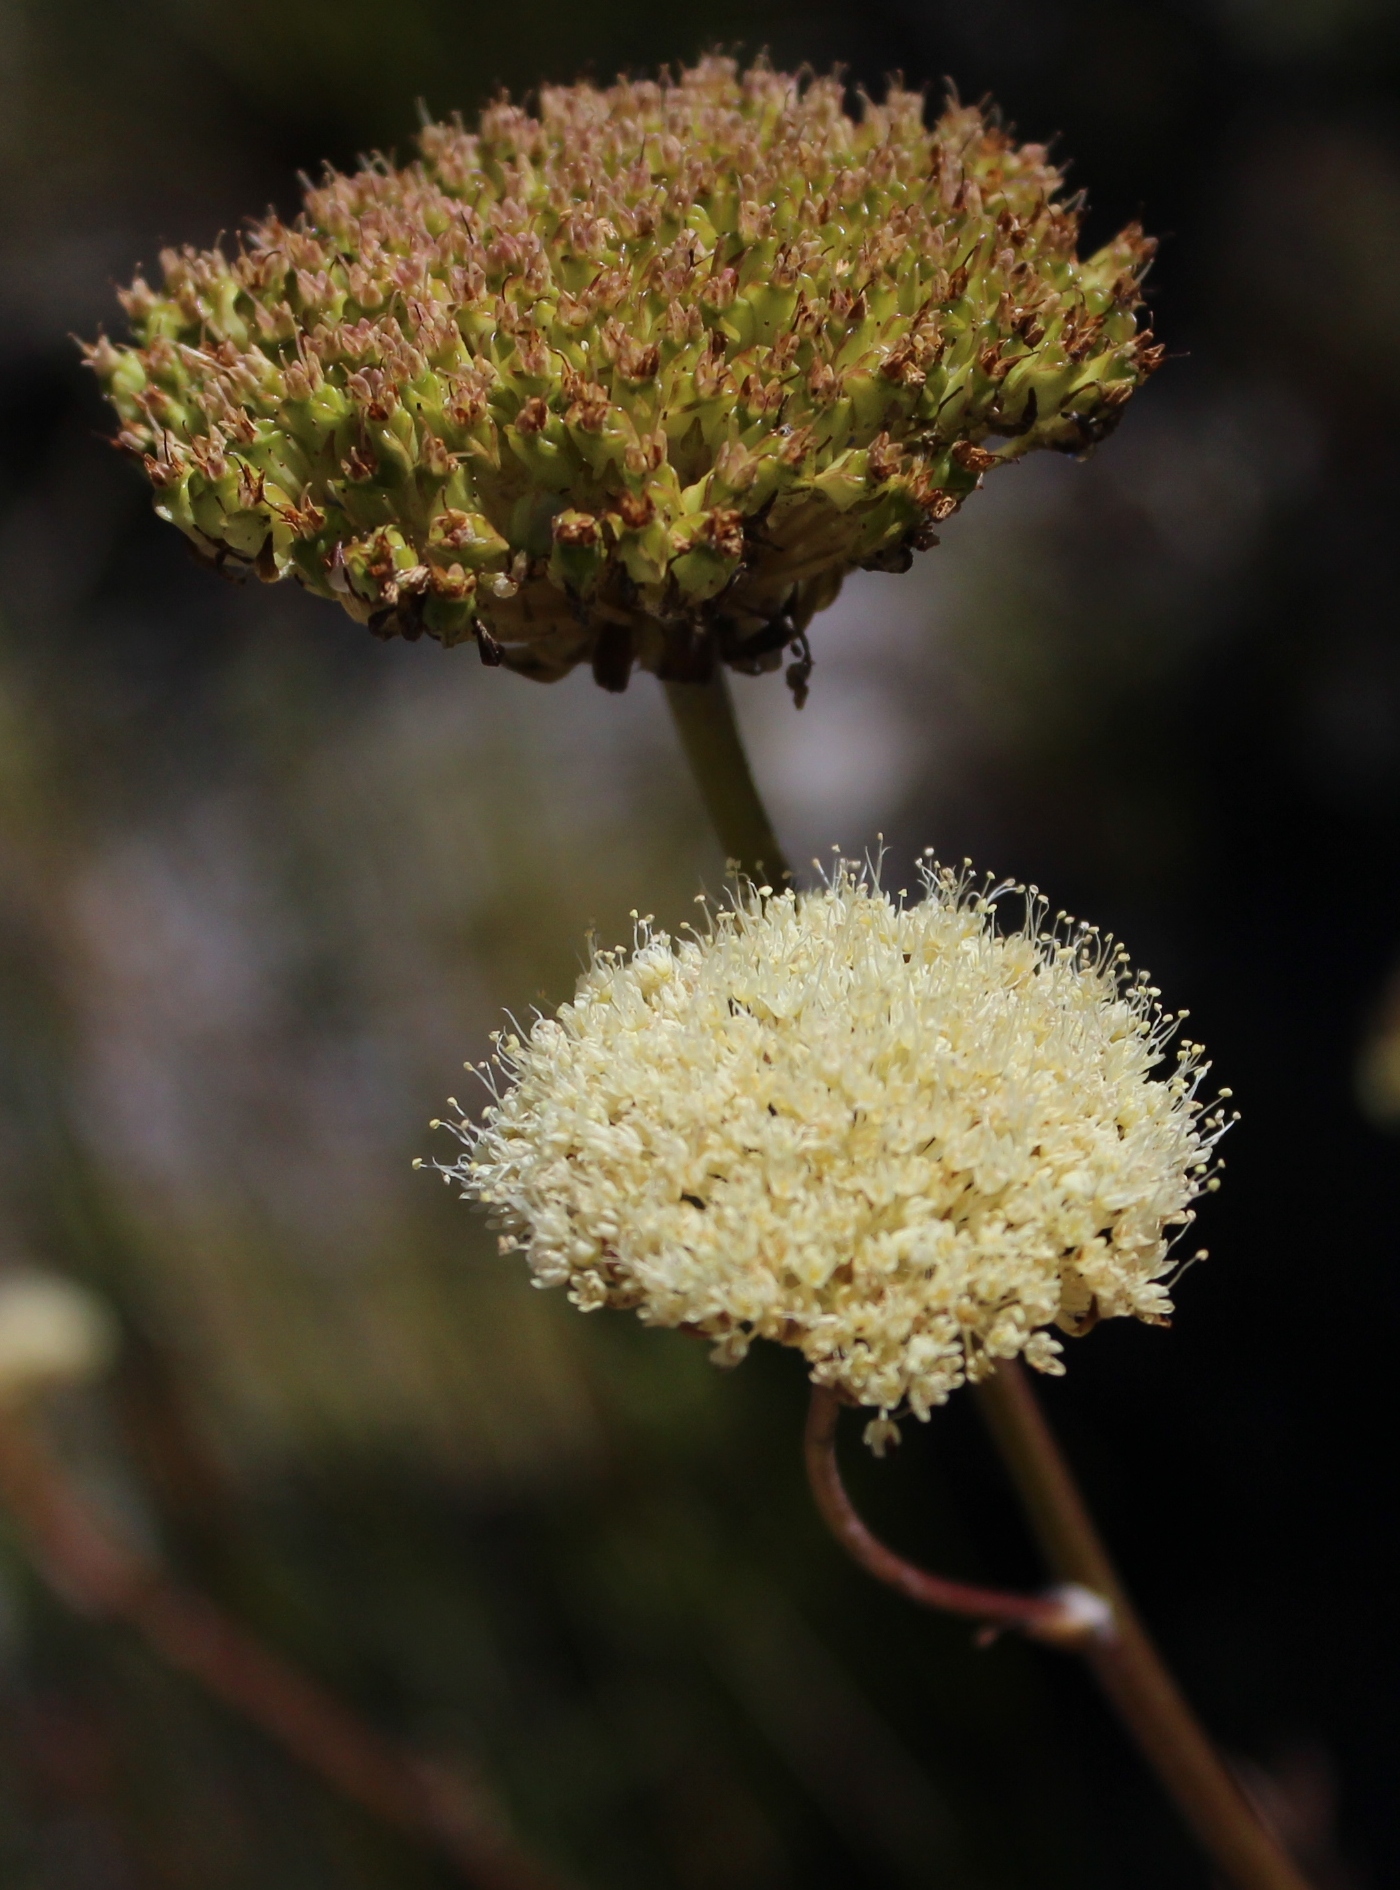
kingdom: Plantae
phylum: Tracheophyta
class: Magnoliopsida
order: Apiales
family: Apiaceae
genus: Hermas
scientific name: Hermas villosa
